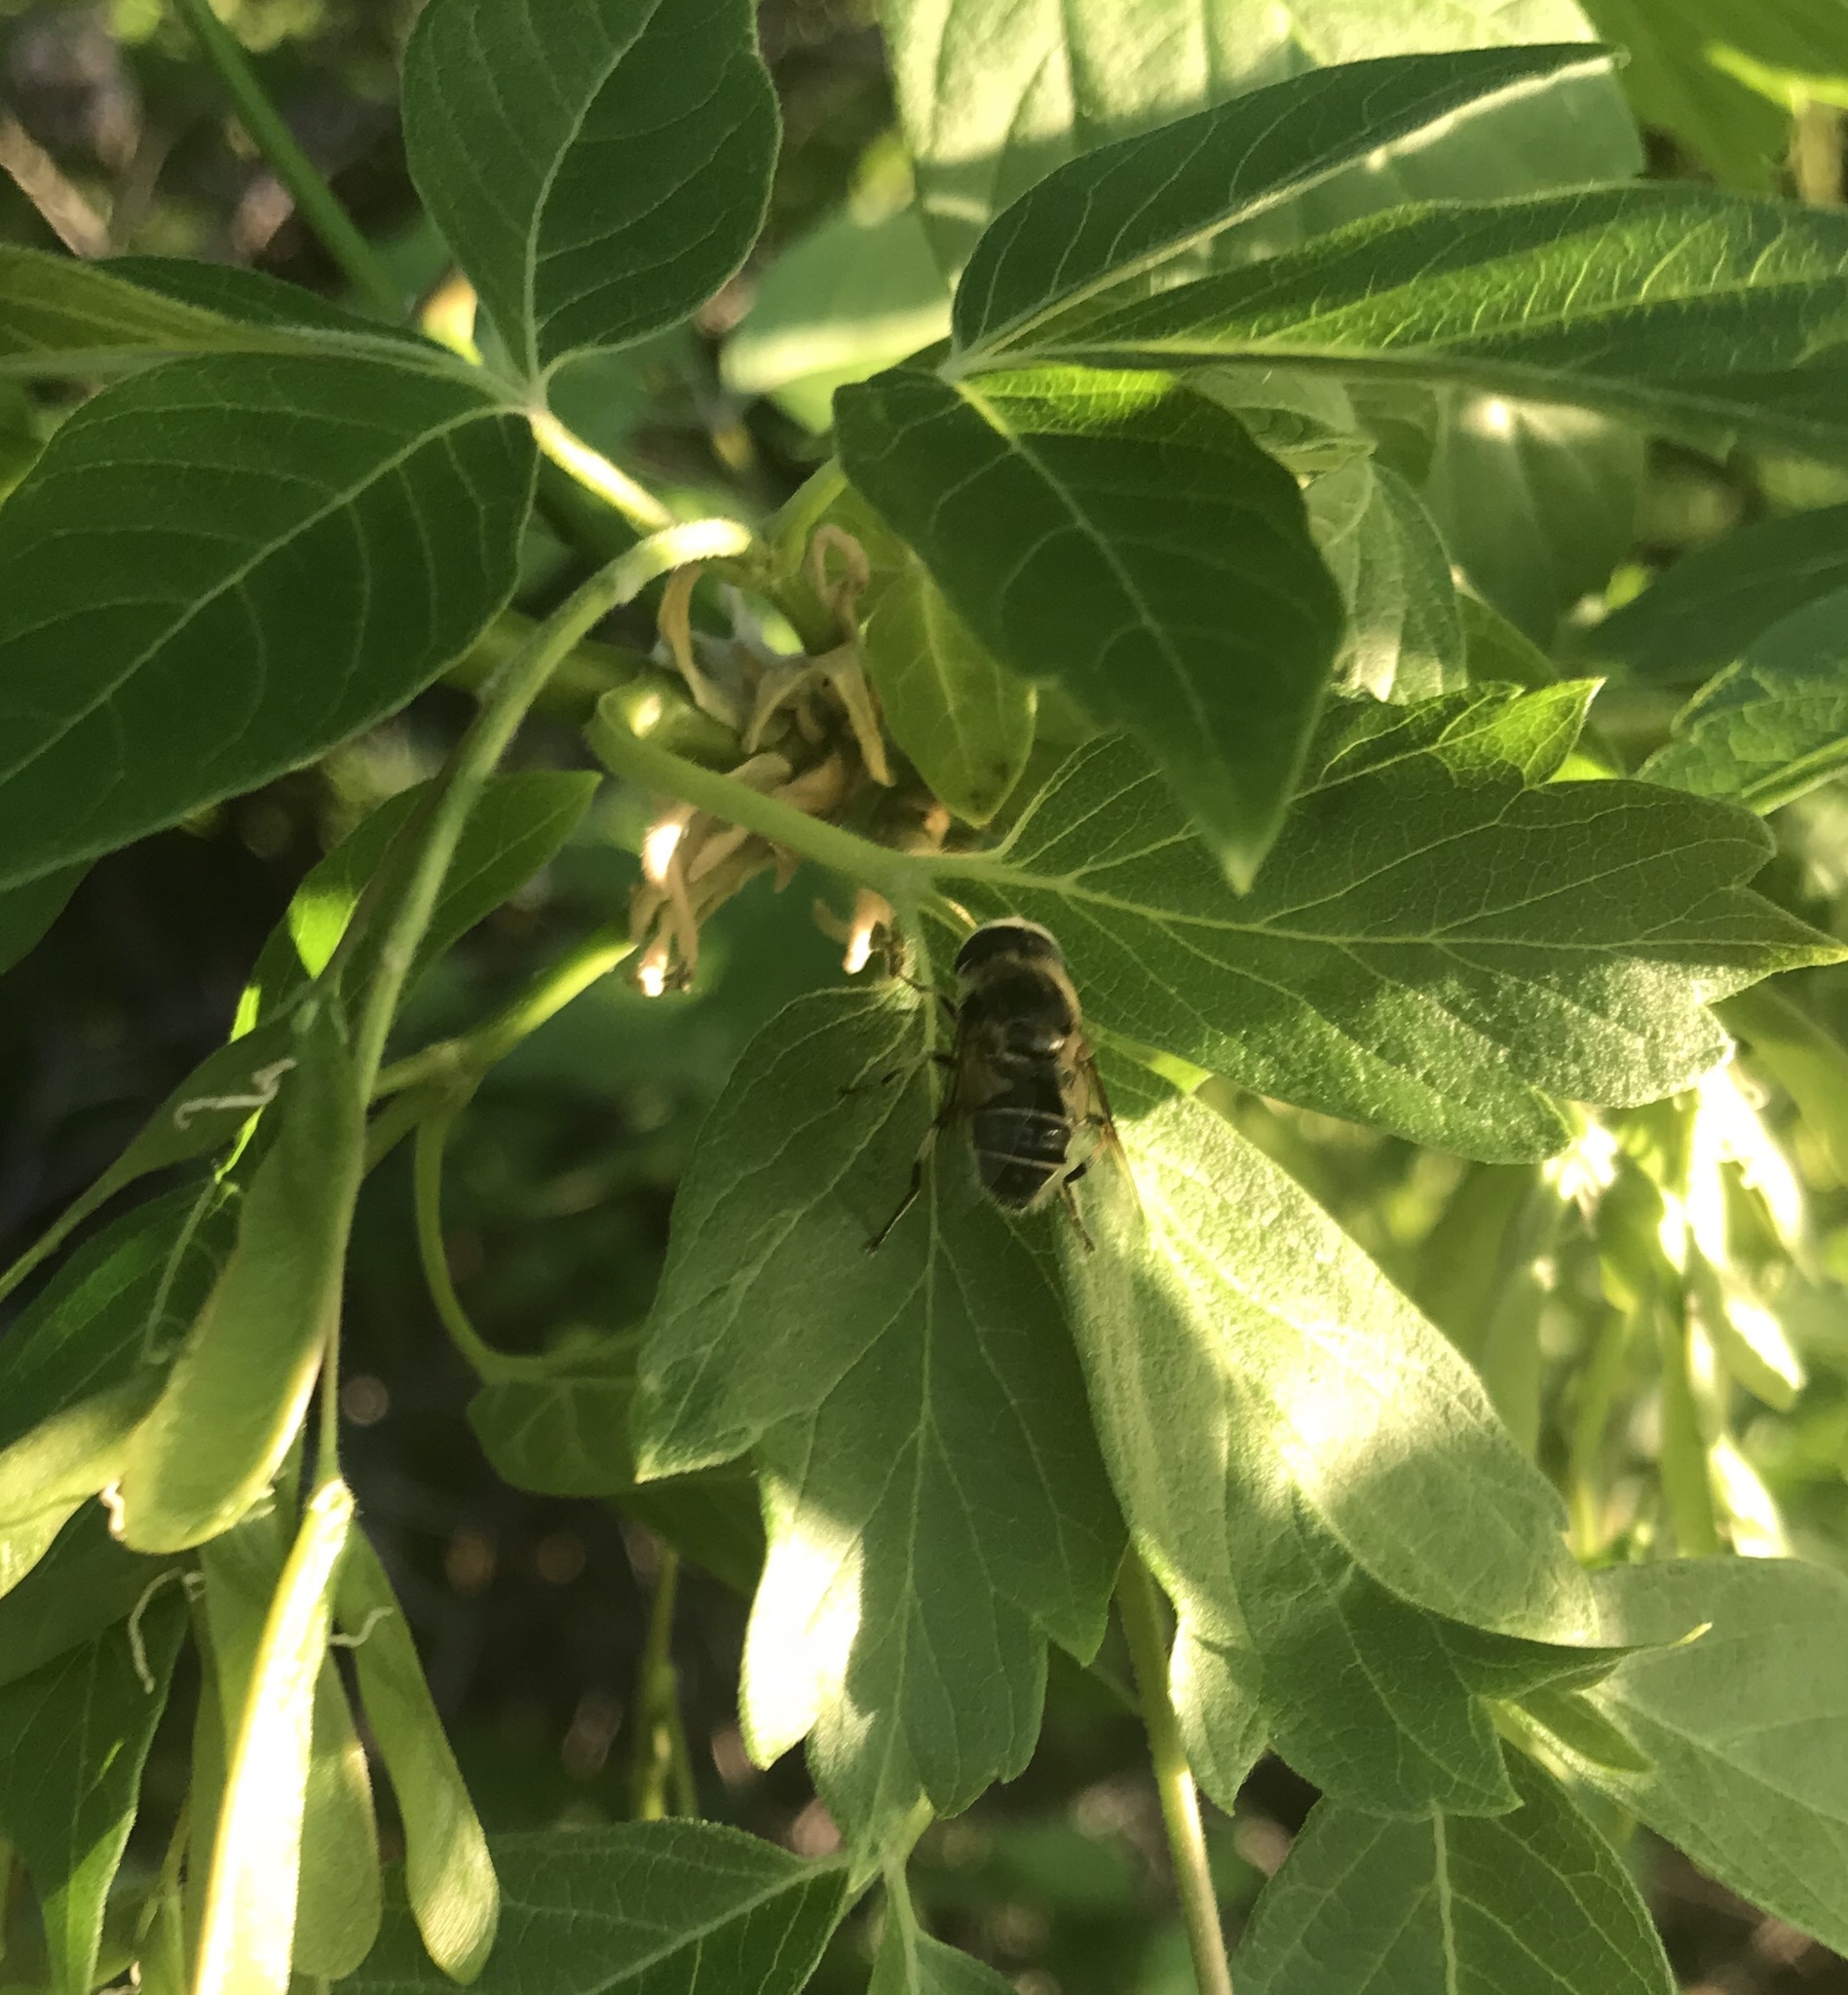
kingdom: Animalia
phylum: Arthropoda
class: Insecta
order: Diptera
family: Syrphidae
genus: Eoseristalis
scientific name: Eoseristalis
